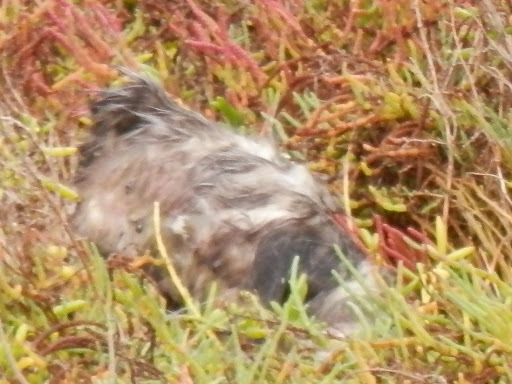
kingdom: Animalia
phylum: Chordata
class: Mammalia
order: Didelphimorphia
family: Didelphidae
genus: Didelphis
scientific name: Didelphis virginiana
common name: Virginia opossum
